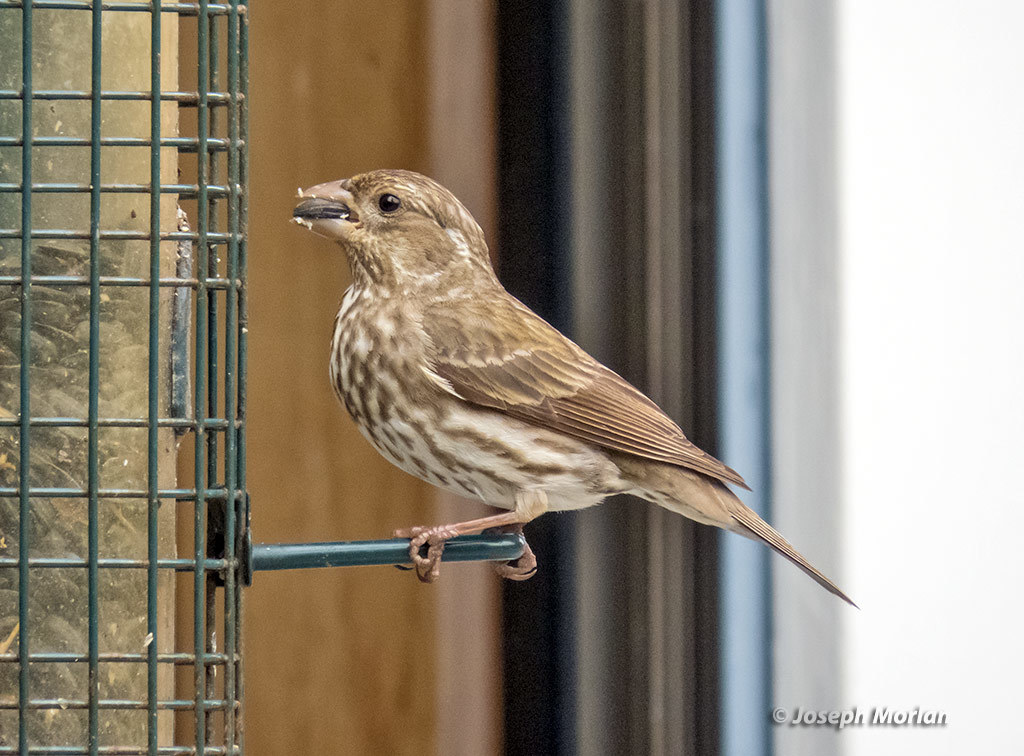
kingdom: Animalia
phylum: Chordata
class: Aves
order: Passeriformes
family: Fringillidae
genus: Haemorhous
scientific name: Haemorhous purpureus
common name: Purple finch
